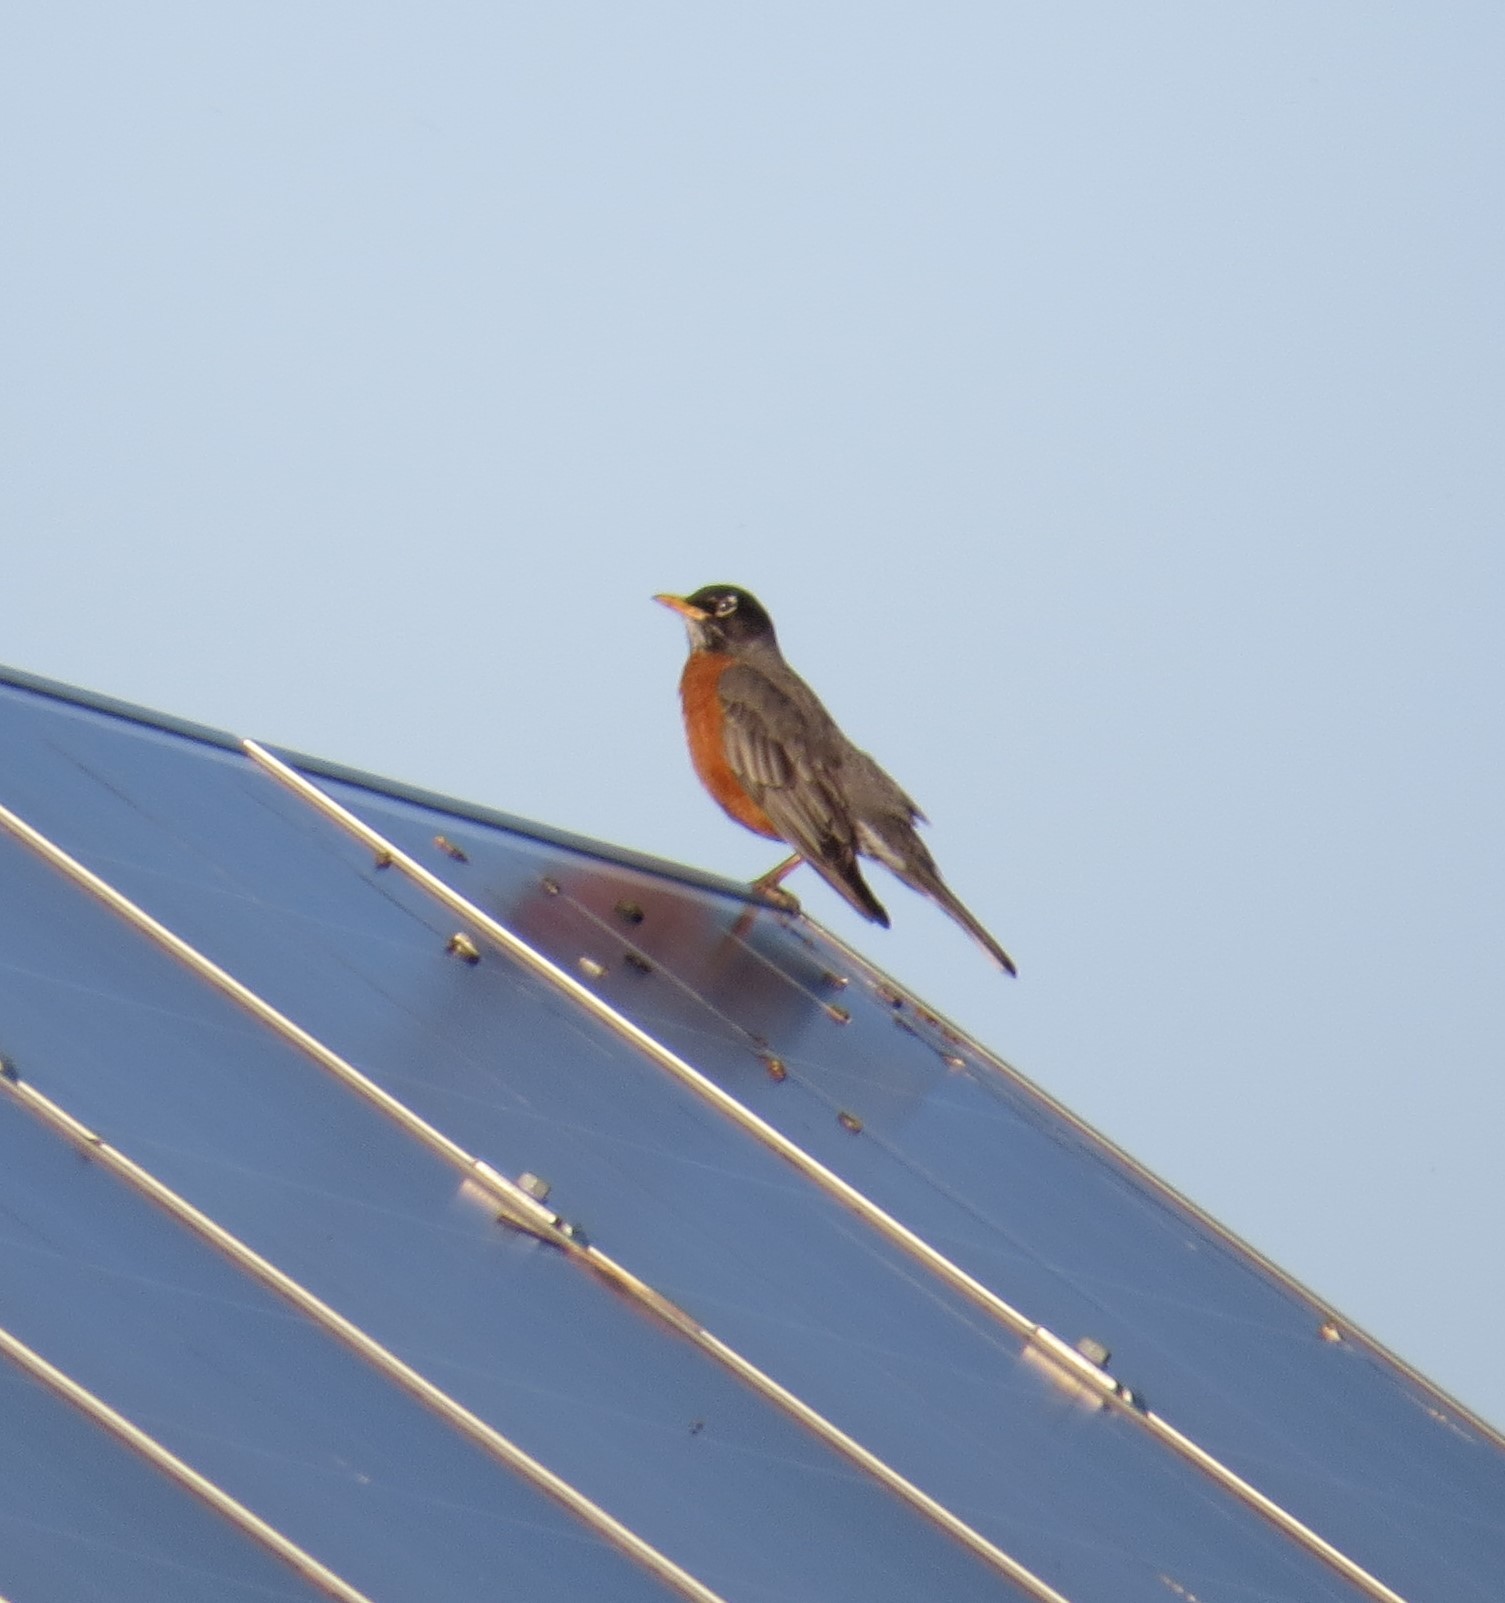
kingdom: Animalia
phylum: Chordata
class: Aves
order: Passeriformes
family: Turdidae
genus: Turdus
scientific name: Turdus migratorius
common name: American robin
